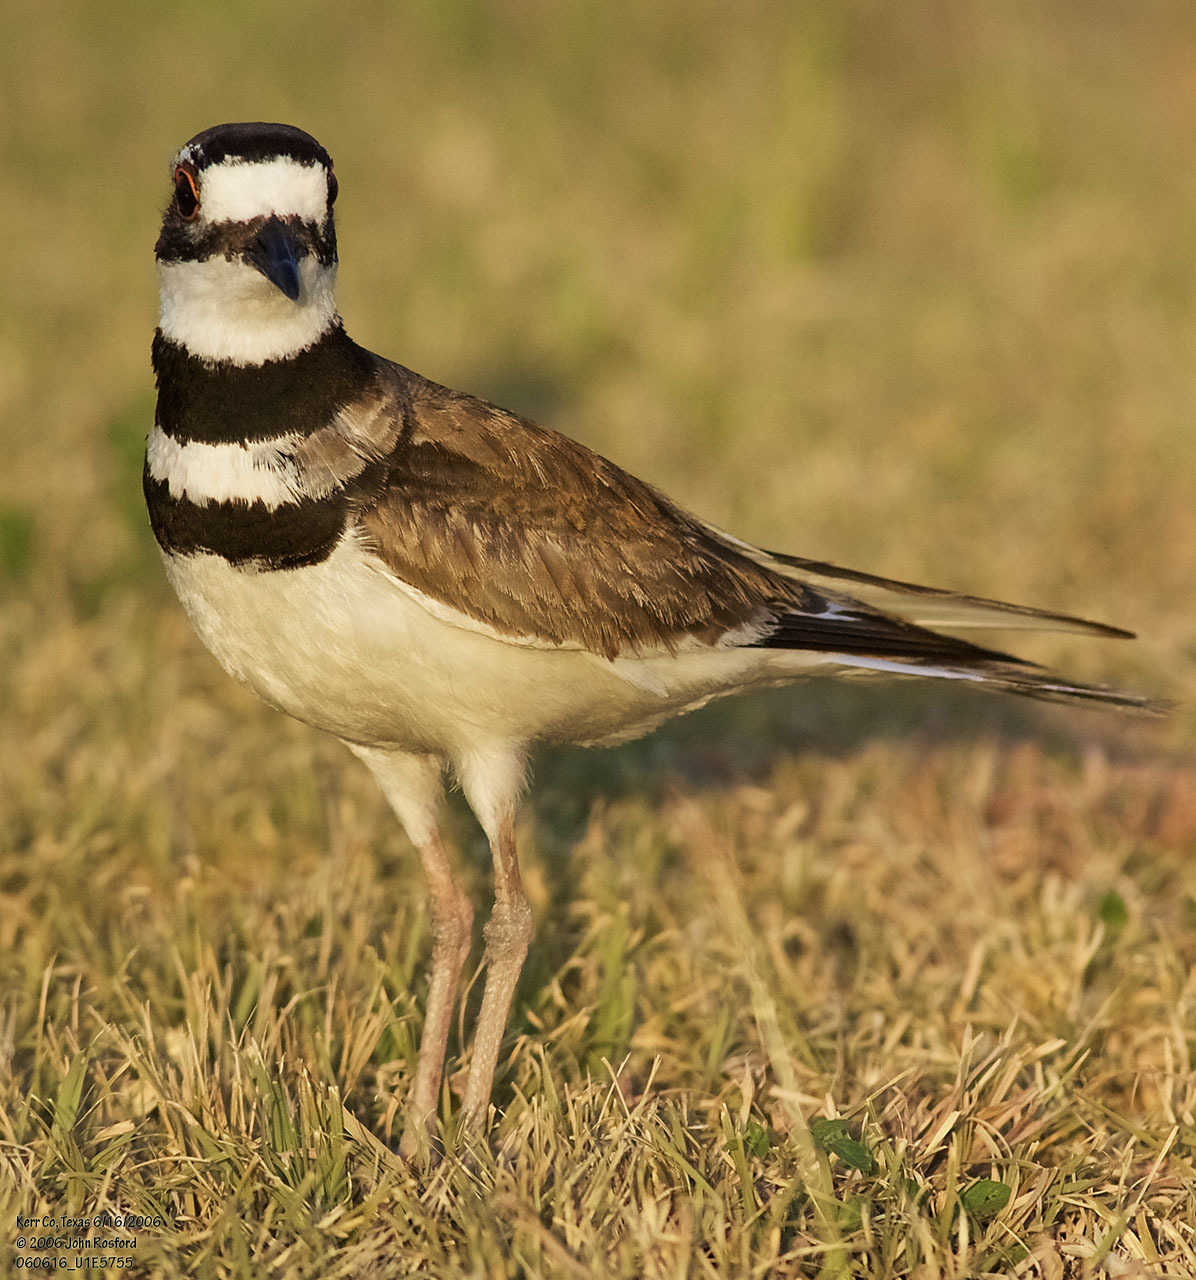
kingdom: Animalia
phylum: Chordata
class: Aves
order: Charadriiformes
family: Charadriidae
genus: Charadrius
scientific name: Charadrius vociferus
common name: Killdeer
